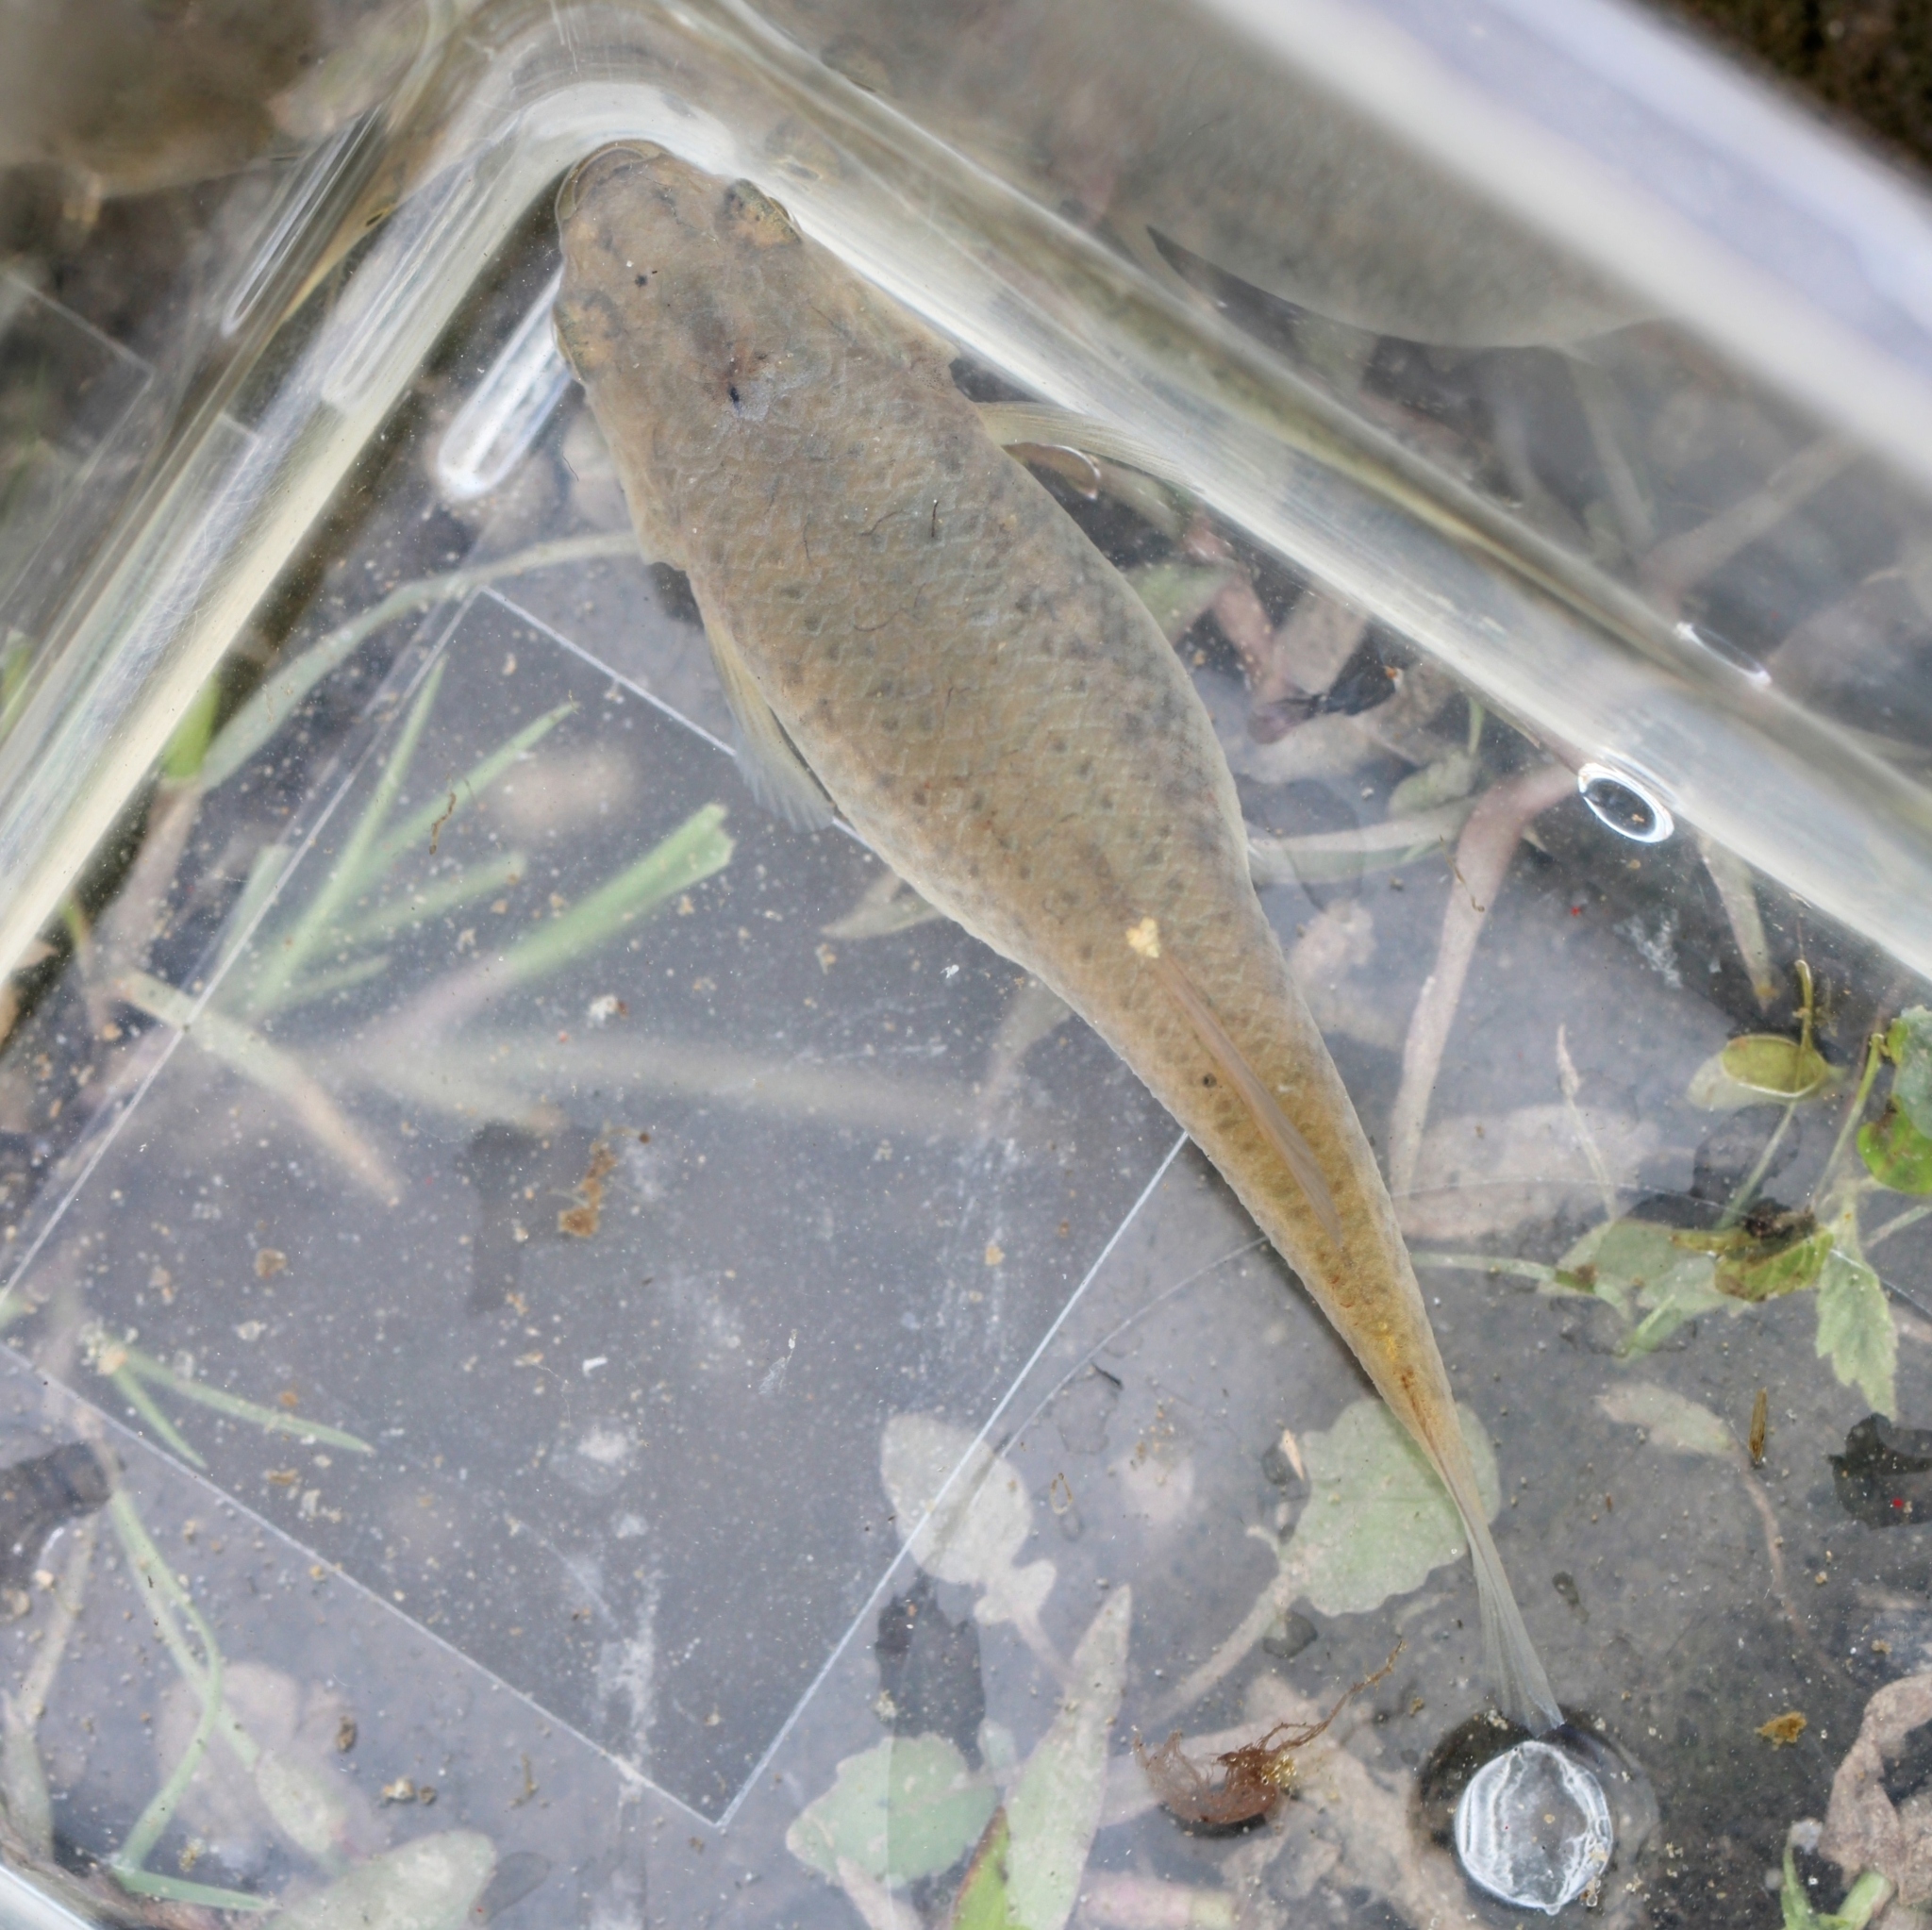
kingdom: Animalia
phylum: Chordata
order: Cyprinodontiformes
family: Fundulidae
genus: Fundulus
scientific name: Fundulus heteroclitus
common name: Mummichog
